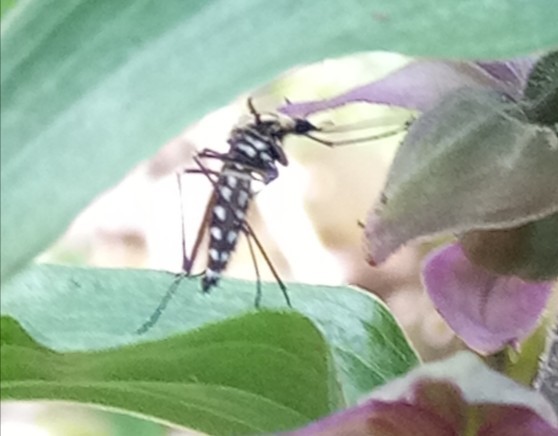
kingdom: Animalia
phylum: Arthropoda
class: Insecta
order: Diptera
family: Culicidae
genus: Aedes
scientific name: Aedes geniculatus
